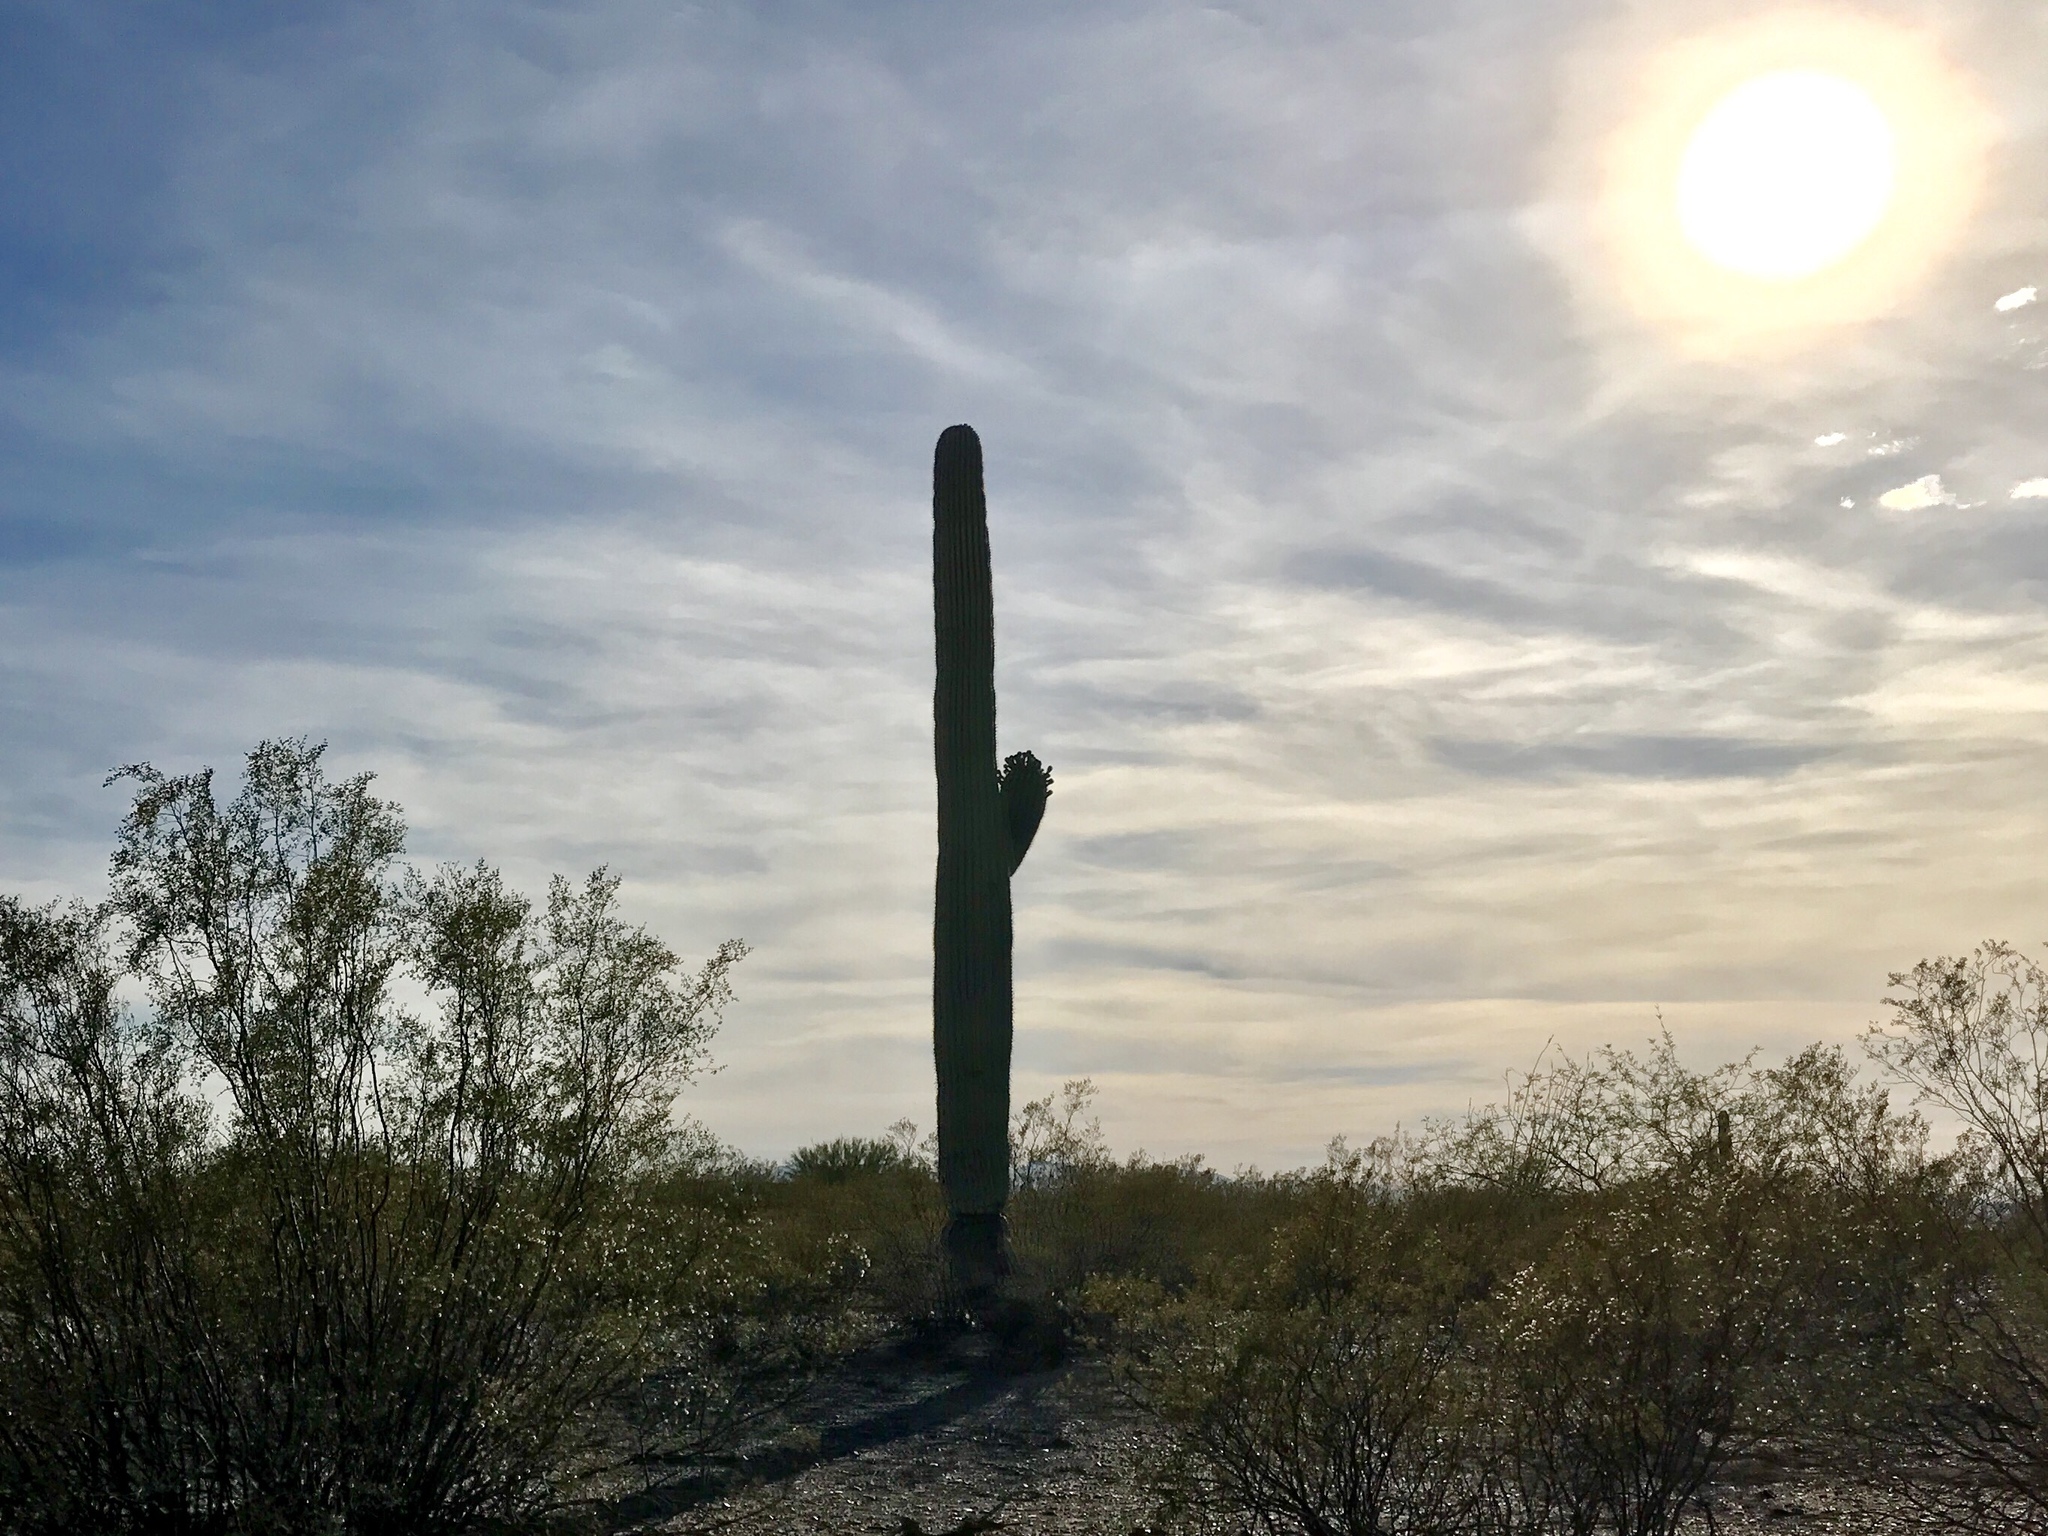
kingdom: Plantae
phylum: Tracheophyta
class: Magnoliopsida
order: Caryophyllales
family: Cactaceae
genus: Carnegiea
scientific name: Carnegiea gigantea
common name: Saguaro
